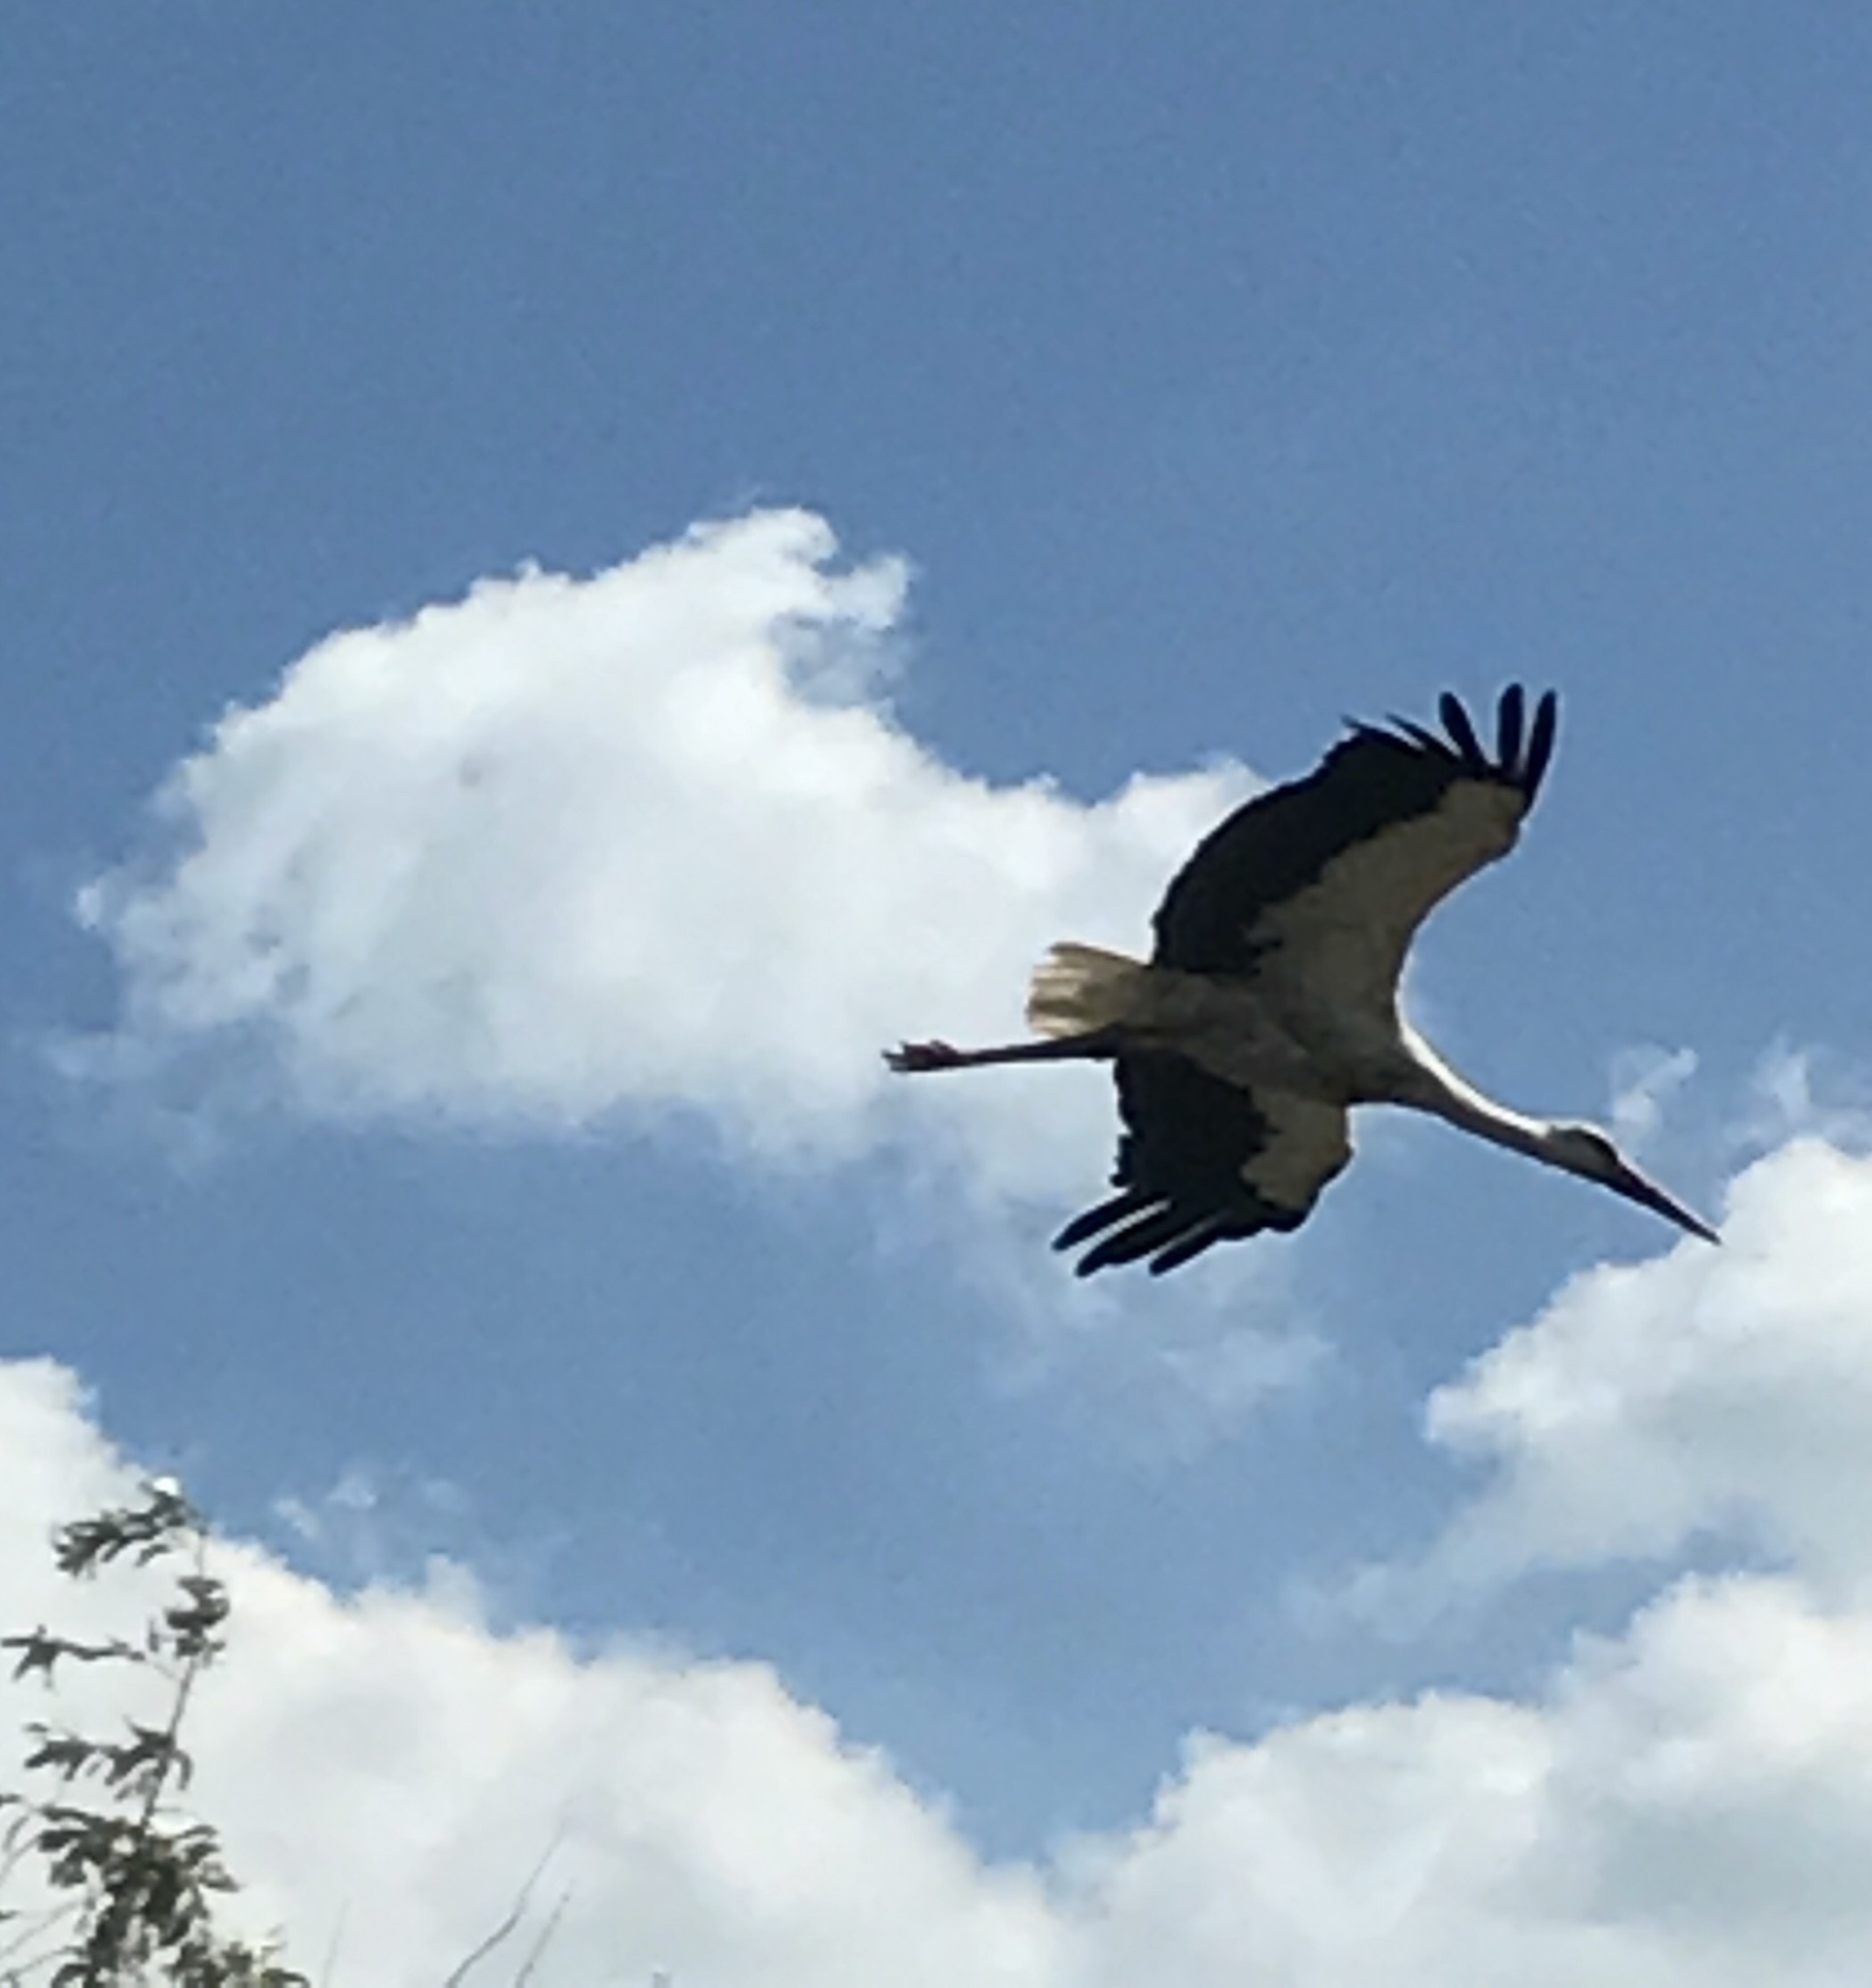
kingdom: Animalia
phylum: Chordata
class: Aves
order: Ciconiiformes
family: Ciconiidae
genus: Ciconia
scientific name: Ciconia ciconia
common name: White stork
